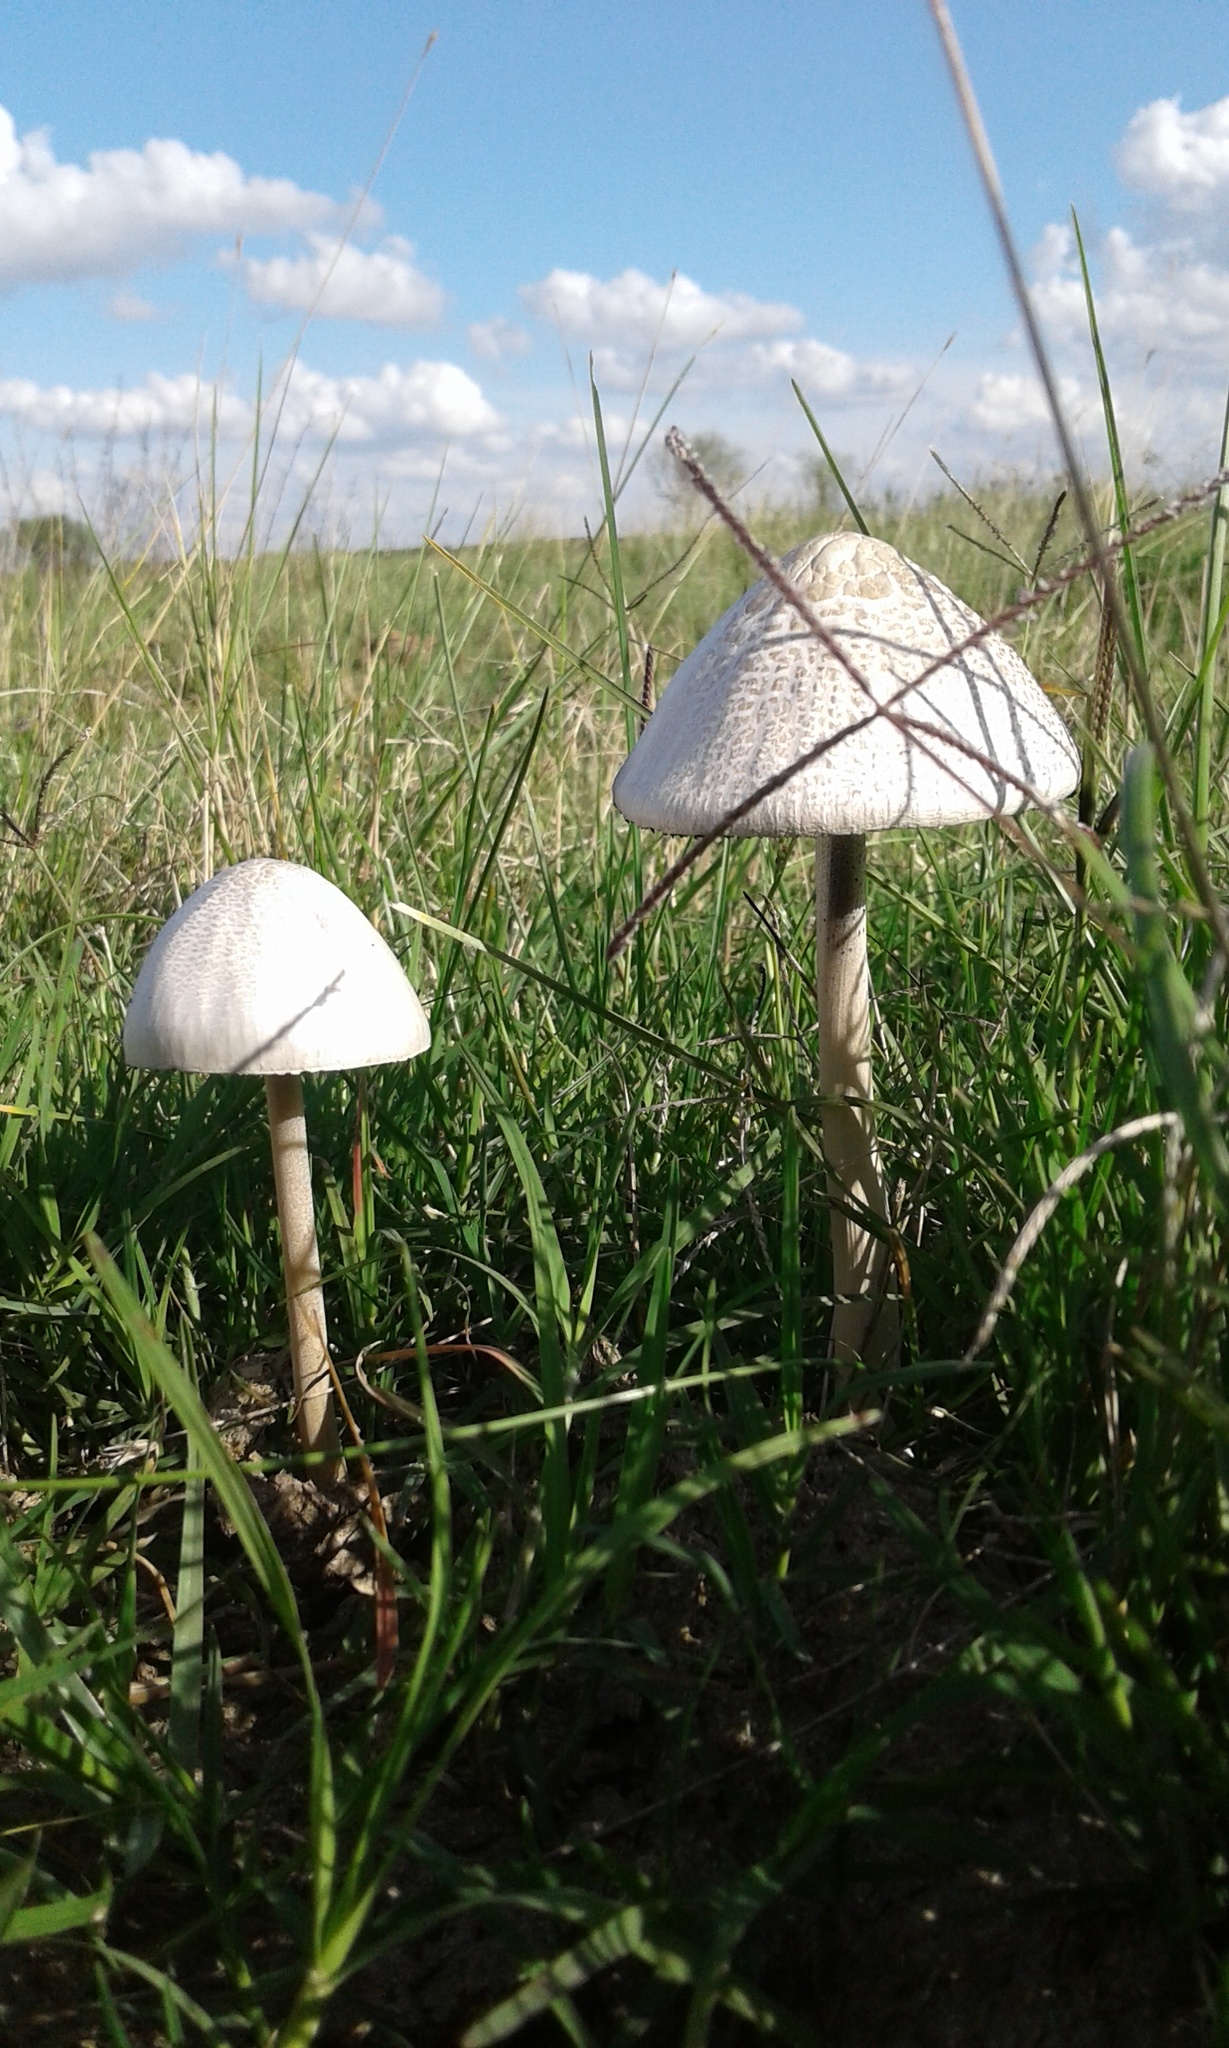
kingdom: Fungi
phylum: Basidiomycota
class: Agaricomycetes
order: Agaricales
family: Bolbitiaceae
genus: Panaeolus
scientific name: Panaeolus antillarum
